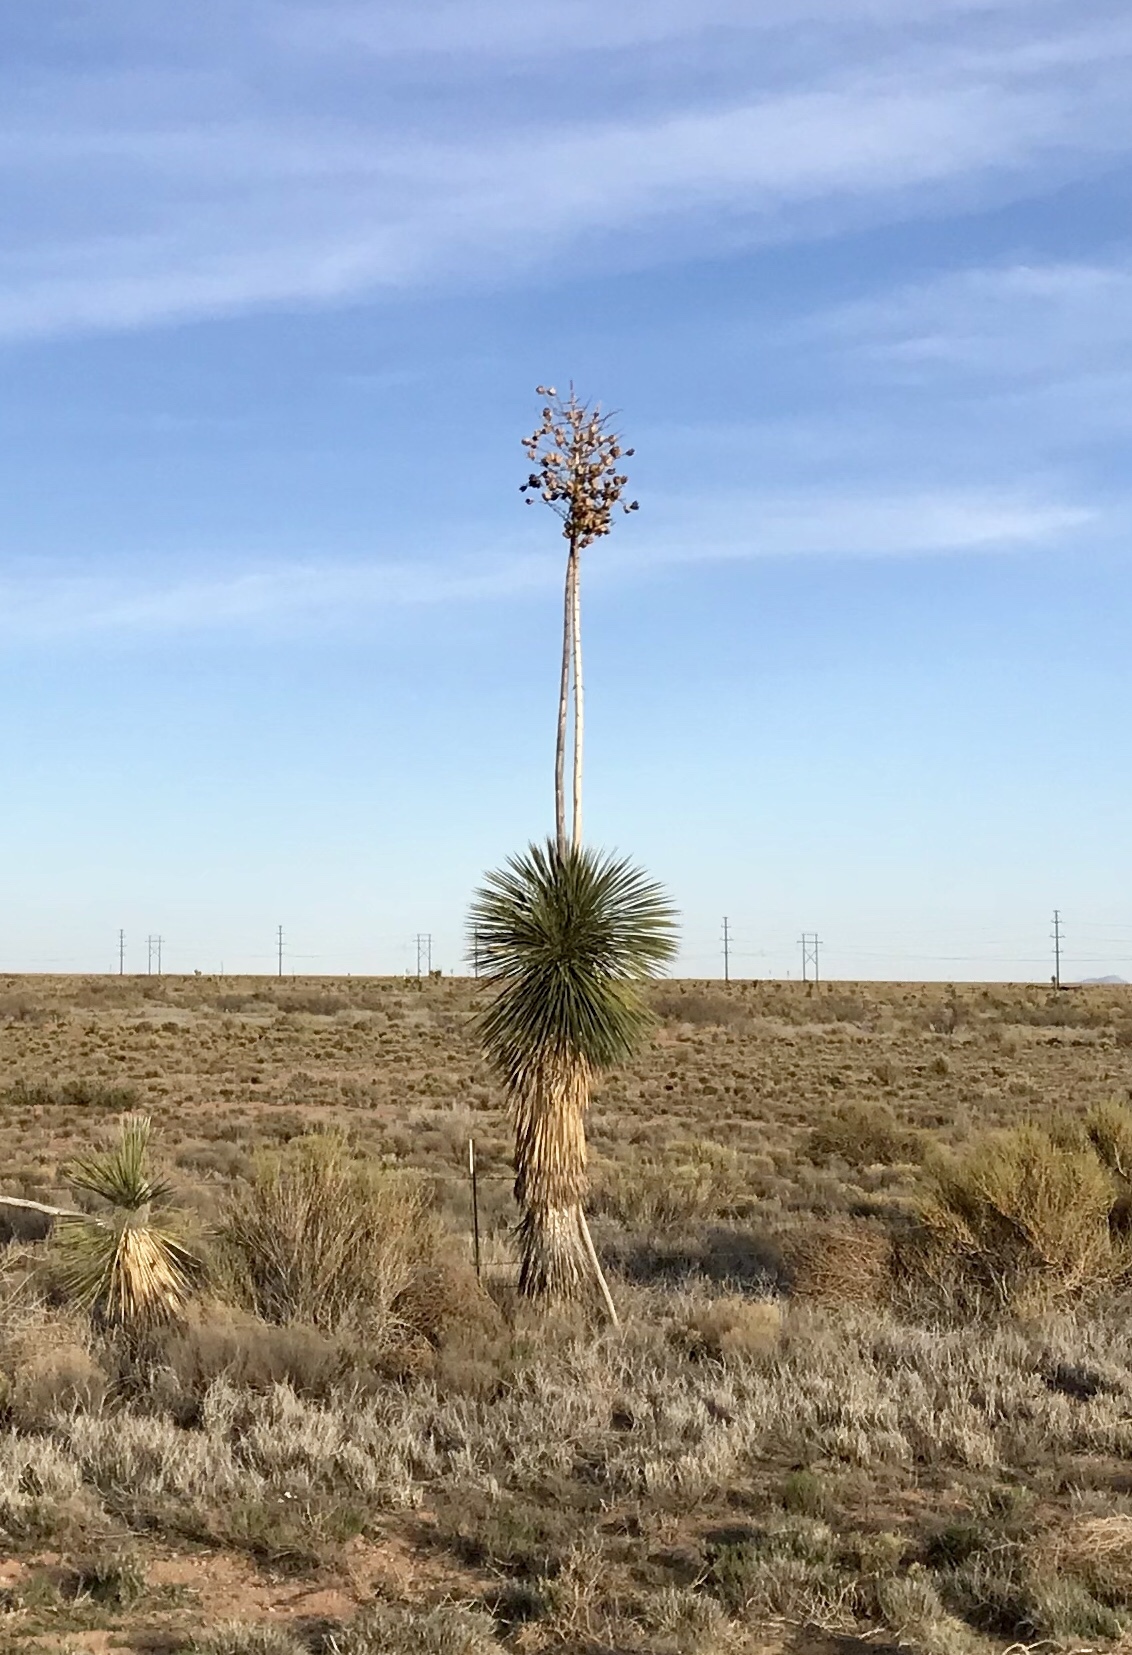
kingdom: Plantae
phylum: Tracheophyta
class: Liliopsida
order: Asparagales
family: Asparagaceae
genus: Yucca
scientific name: Yucca elata
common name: Palmella
